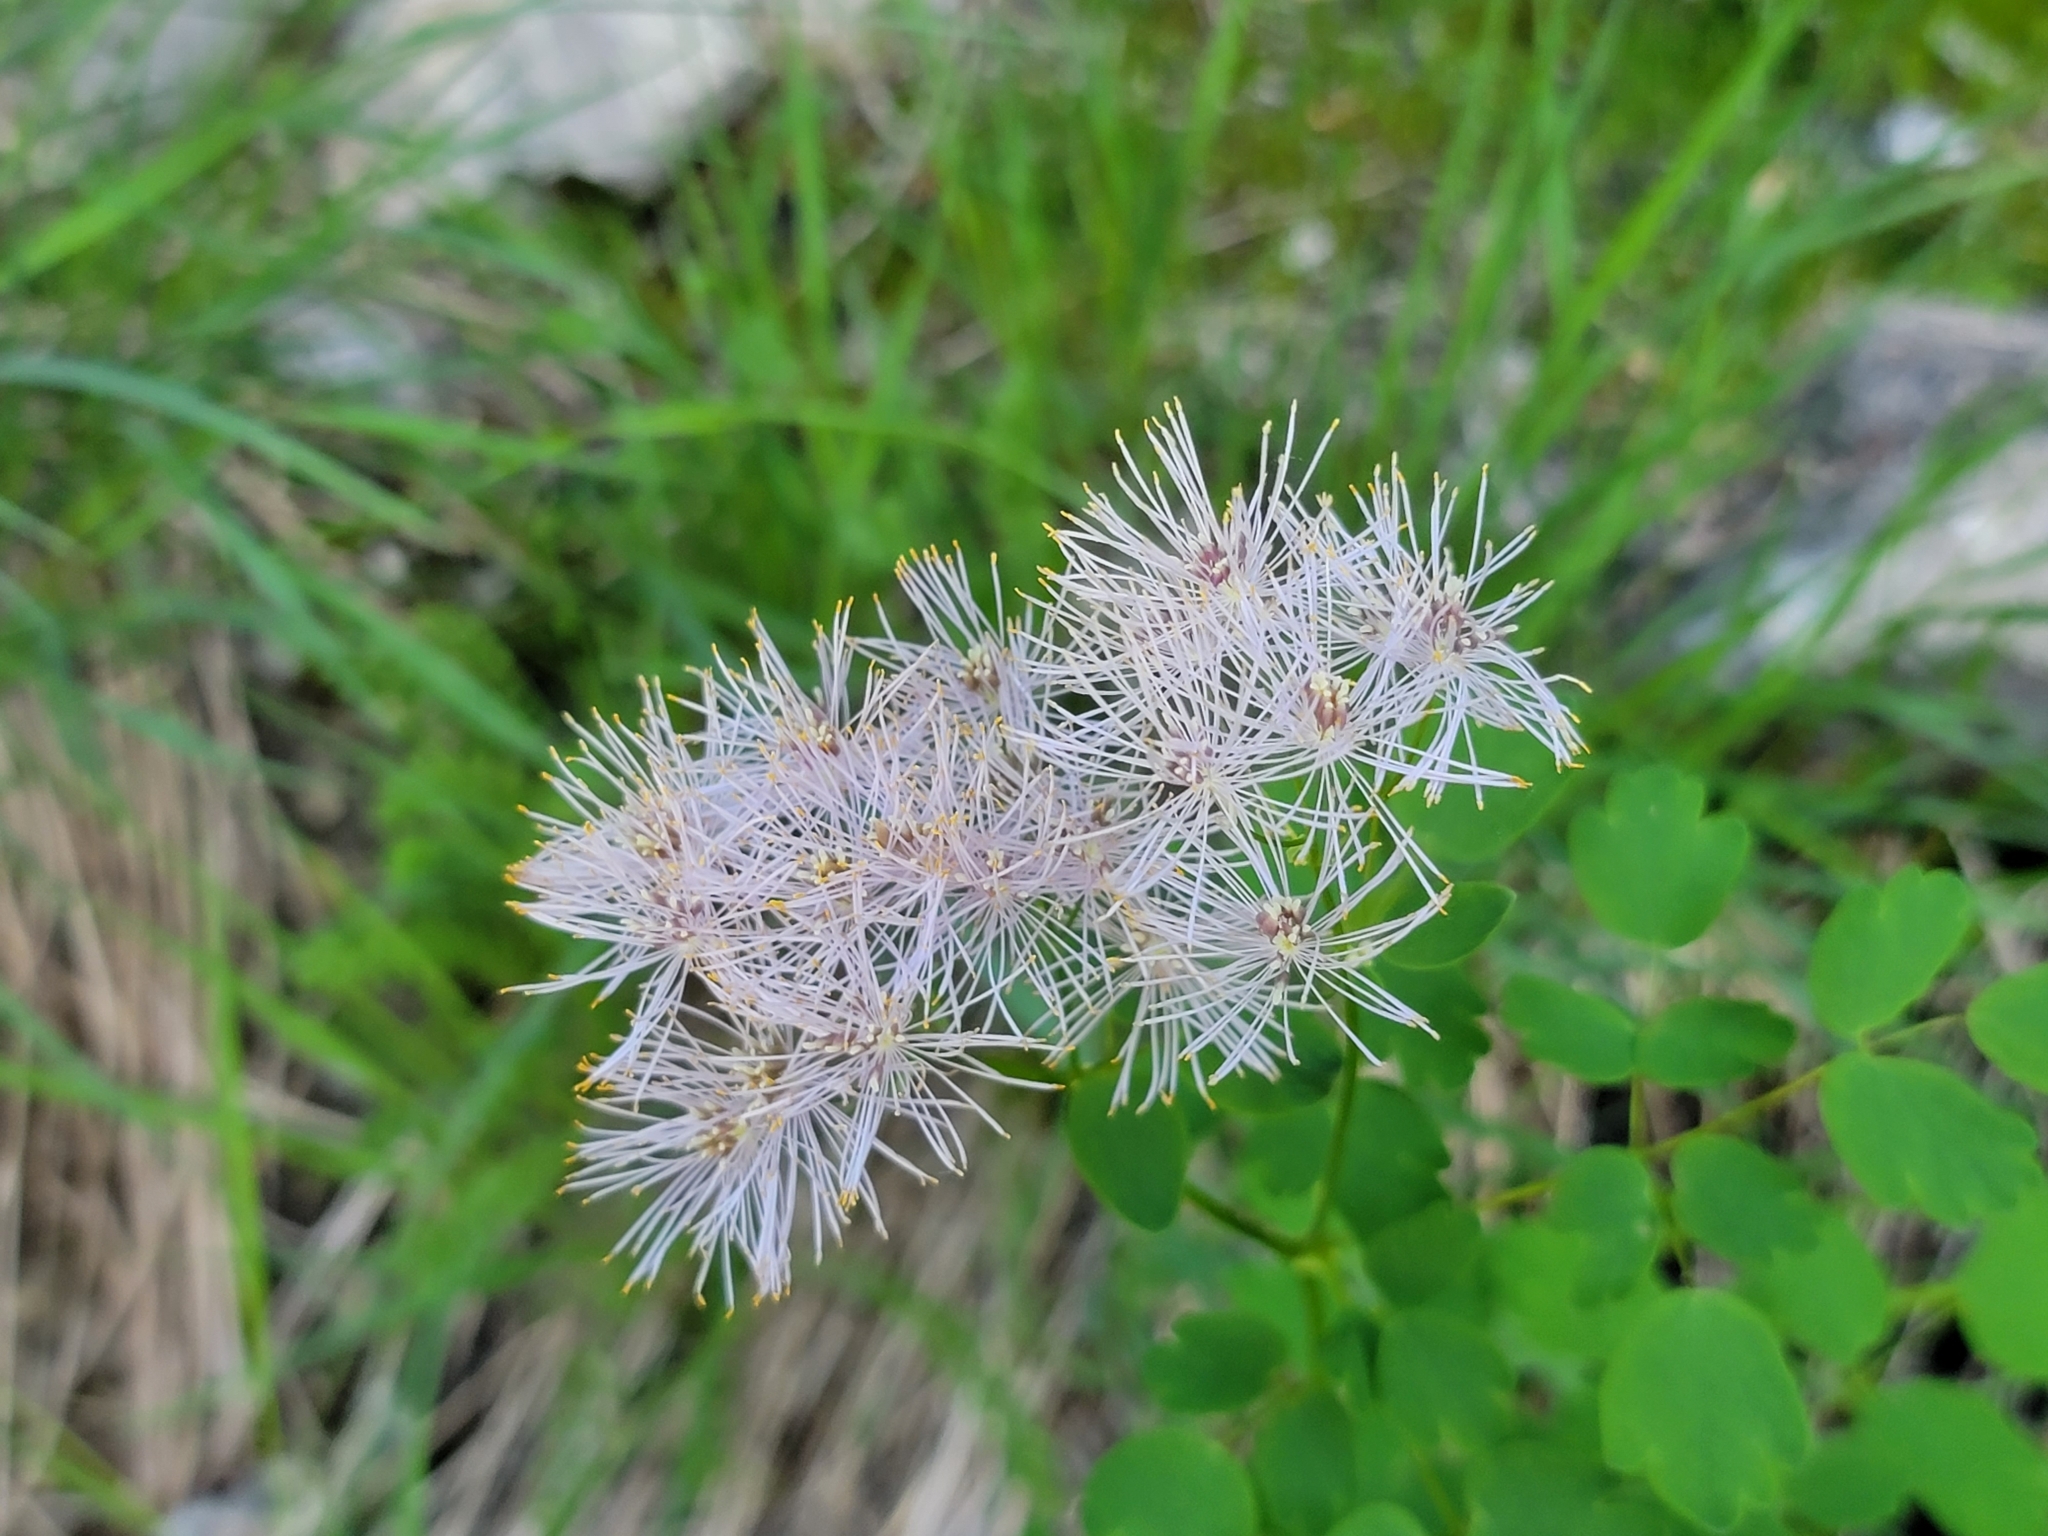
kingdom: Plantae
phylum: Tracheophyta
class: Magnoliopsida
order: Ranunculales
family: Ranunculaceae
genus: Thalictrum
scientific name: Thalictrum aquilegiifolium
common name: French meadow-rue
